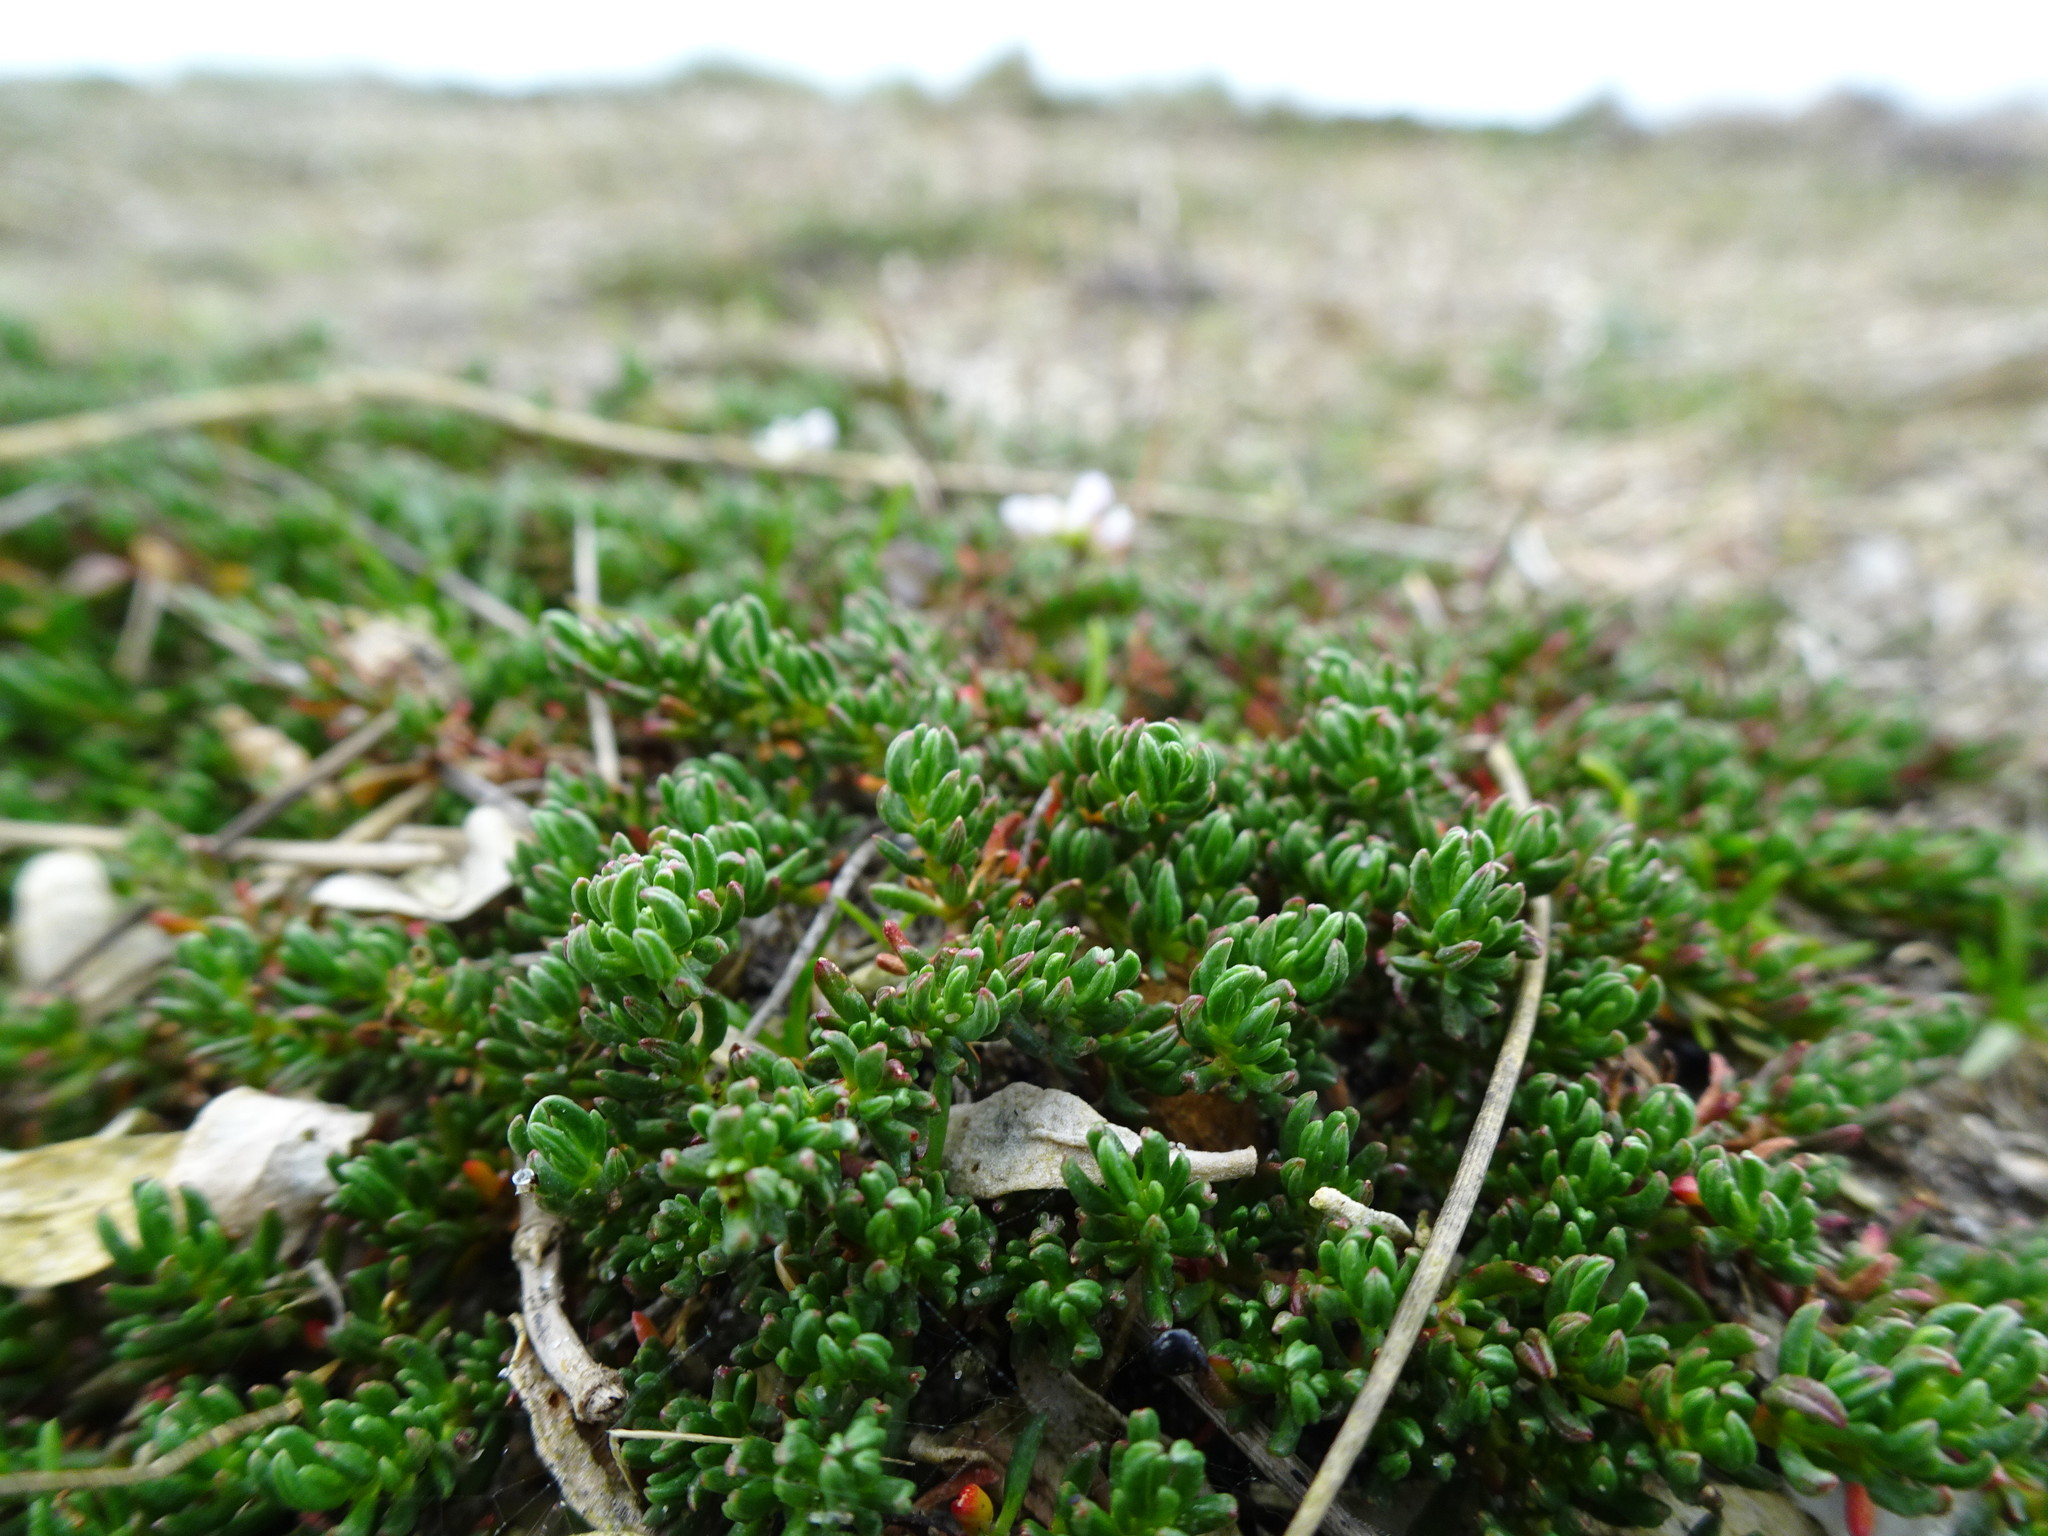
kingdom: Plantae
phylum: Tracheophyta
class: Magnoliopsida
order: Caryophyllales
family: Frankeniaceae
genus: Frankenia
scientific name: Frankenia laevis
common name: Sea-heath
